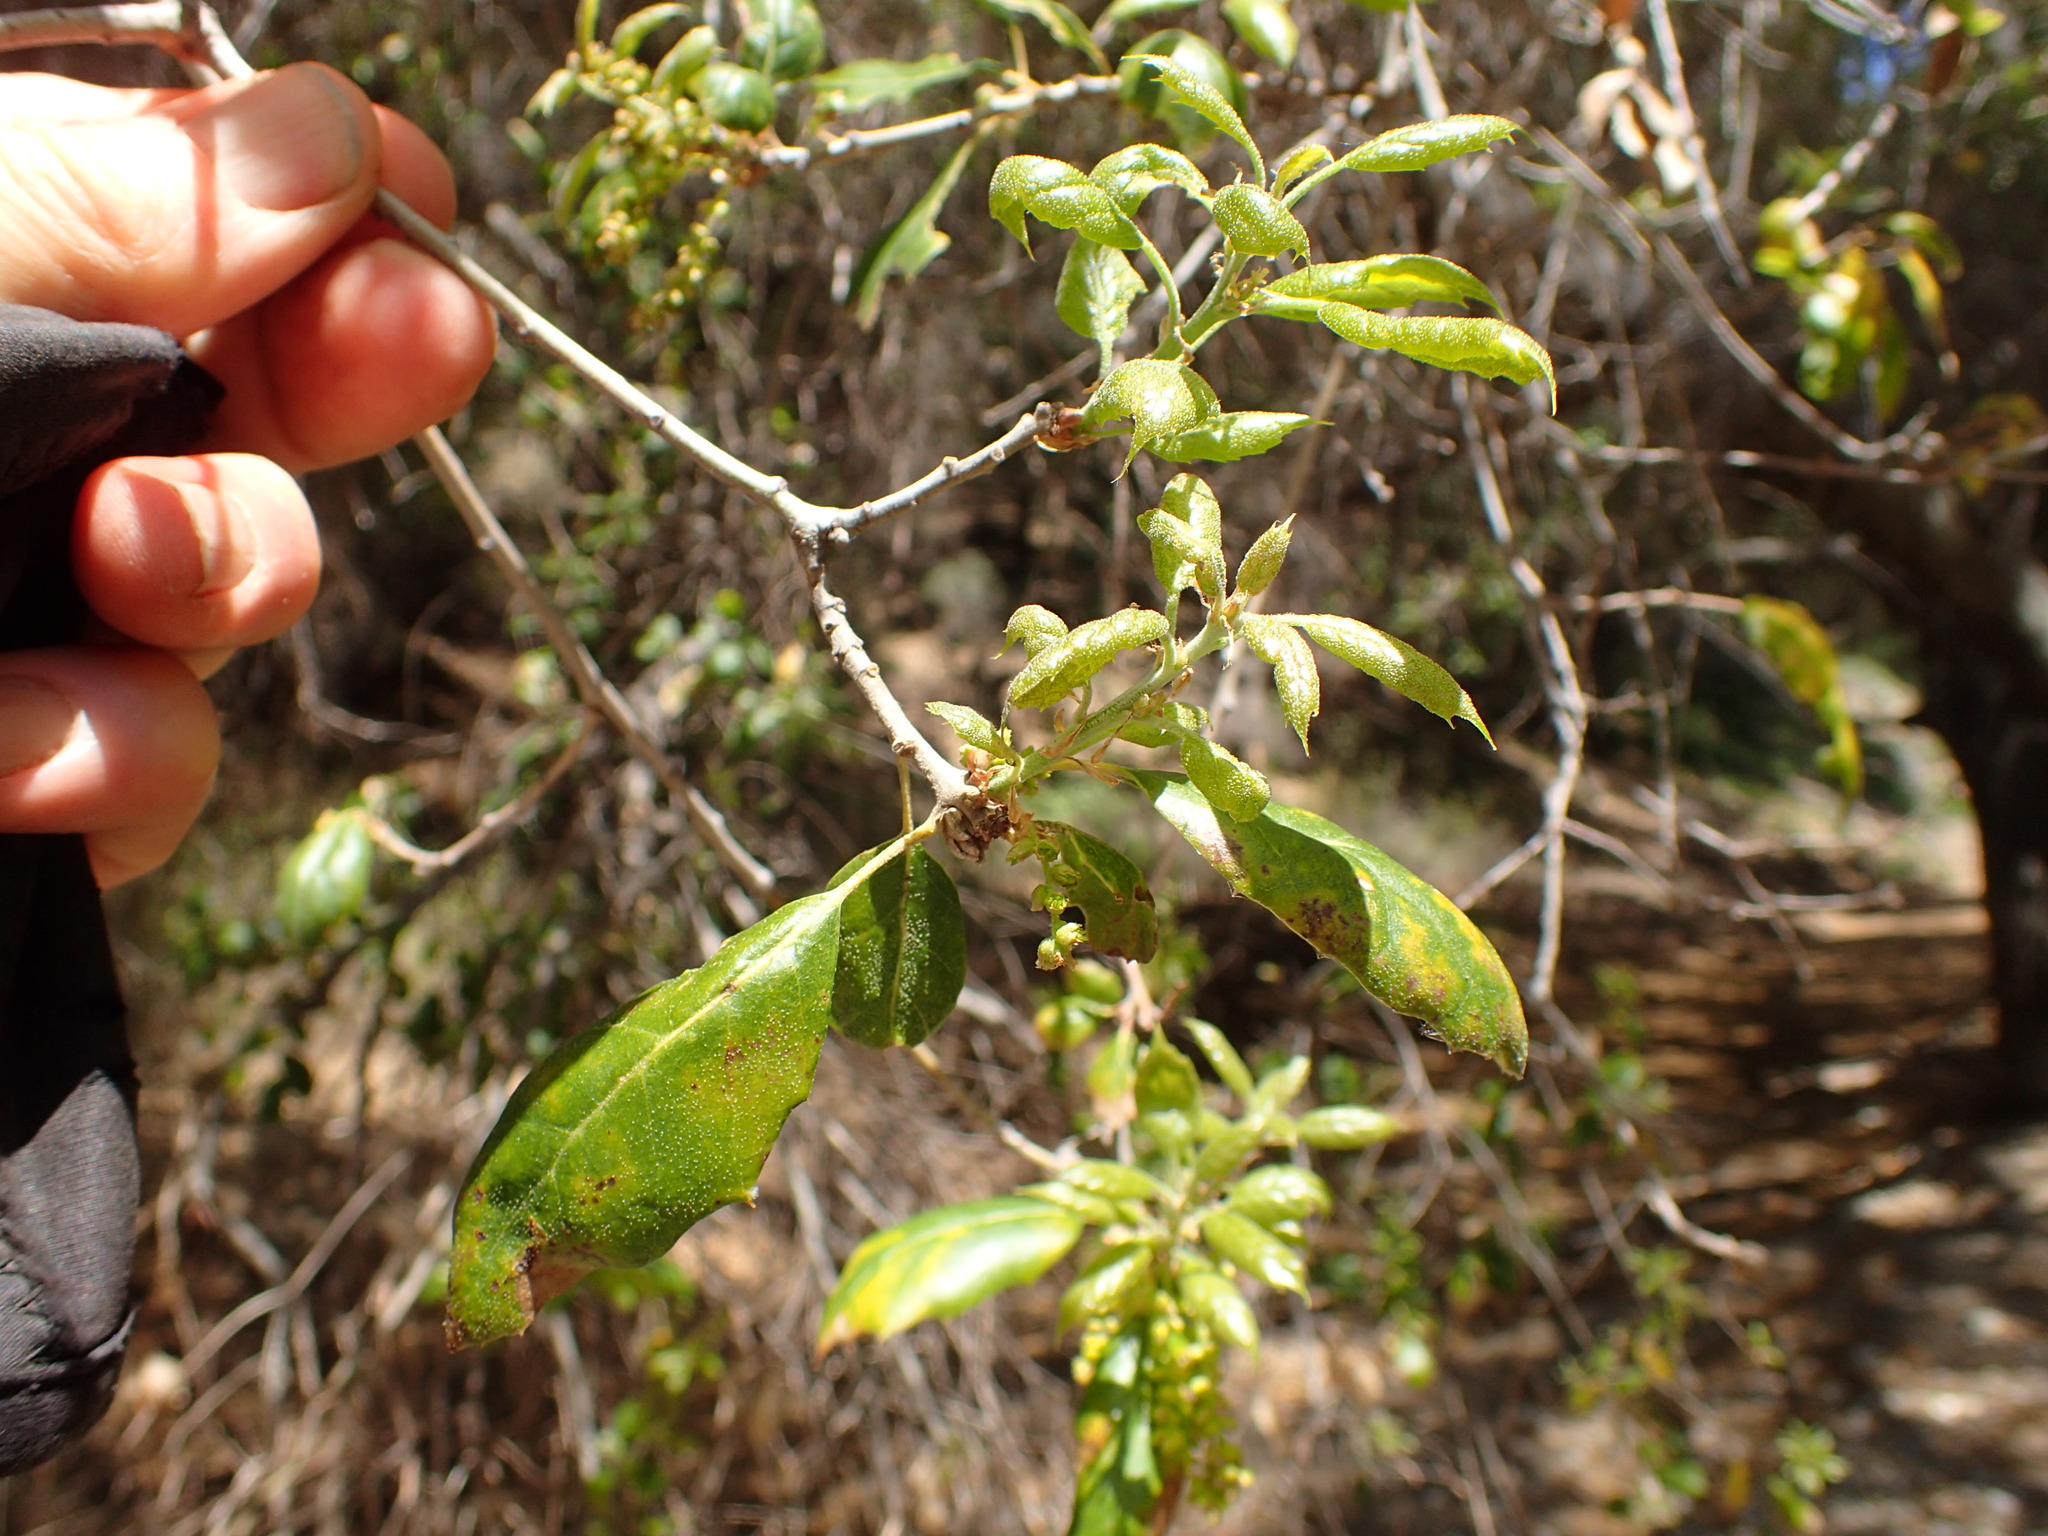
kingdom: Plantae
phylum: Tracheophyta
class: Magnoliopsida
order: Fagales
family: Fagaceae
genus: Quercus
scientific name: Quercus agrifolia
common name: California live oak
